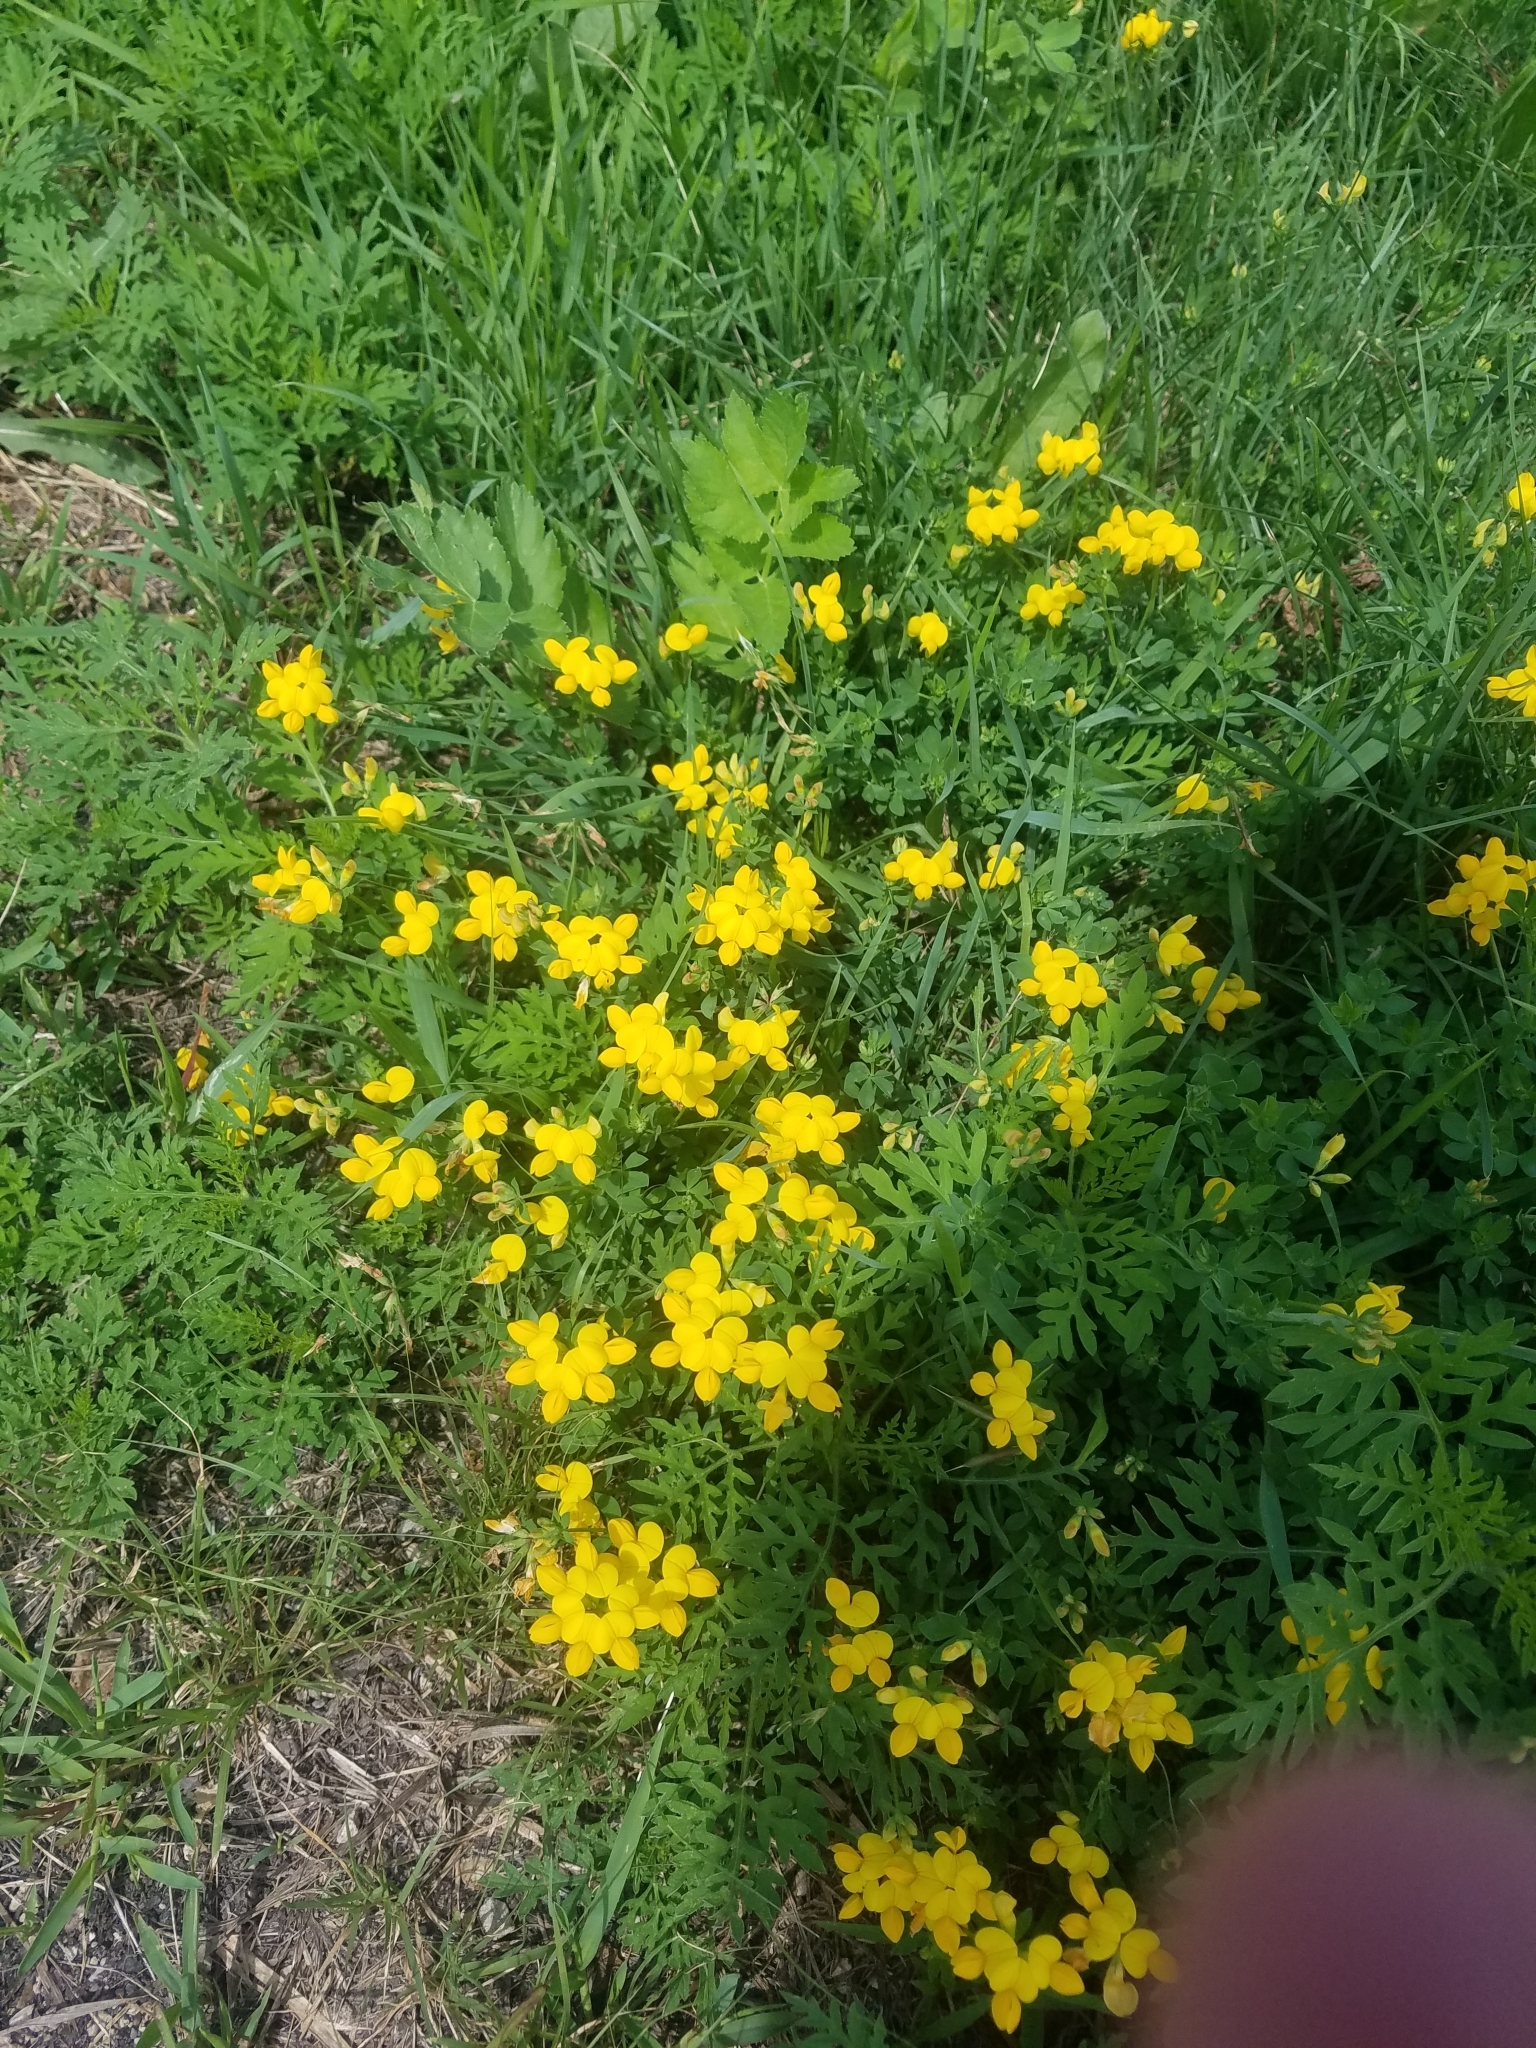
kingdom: Plantae
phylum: Tracheophyta
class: Magnoliopsida
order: Fabales
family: Fabaceae
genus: Lotus
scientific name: Lotus corniculatus
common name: Common bird's-foot-trefoil
